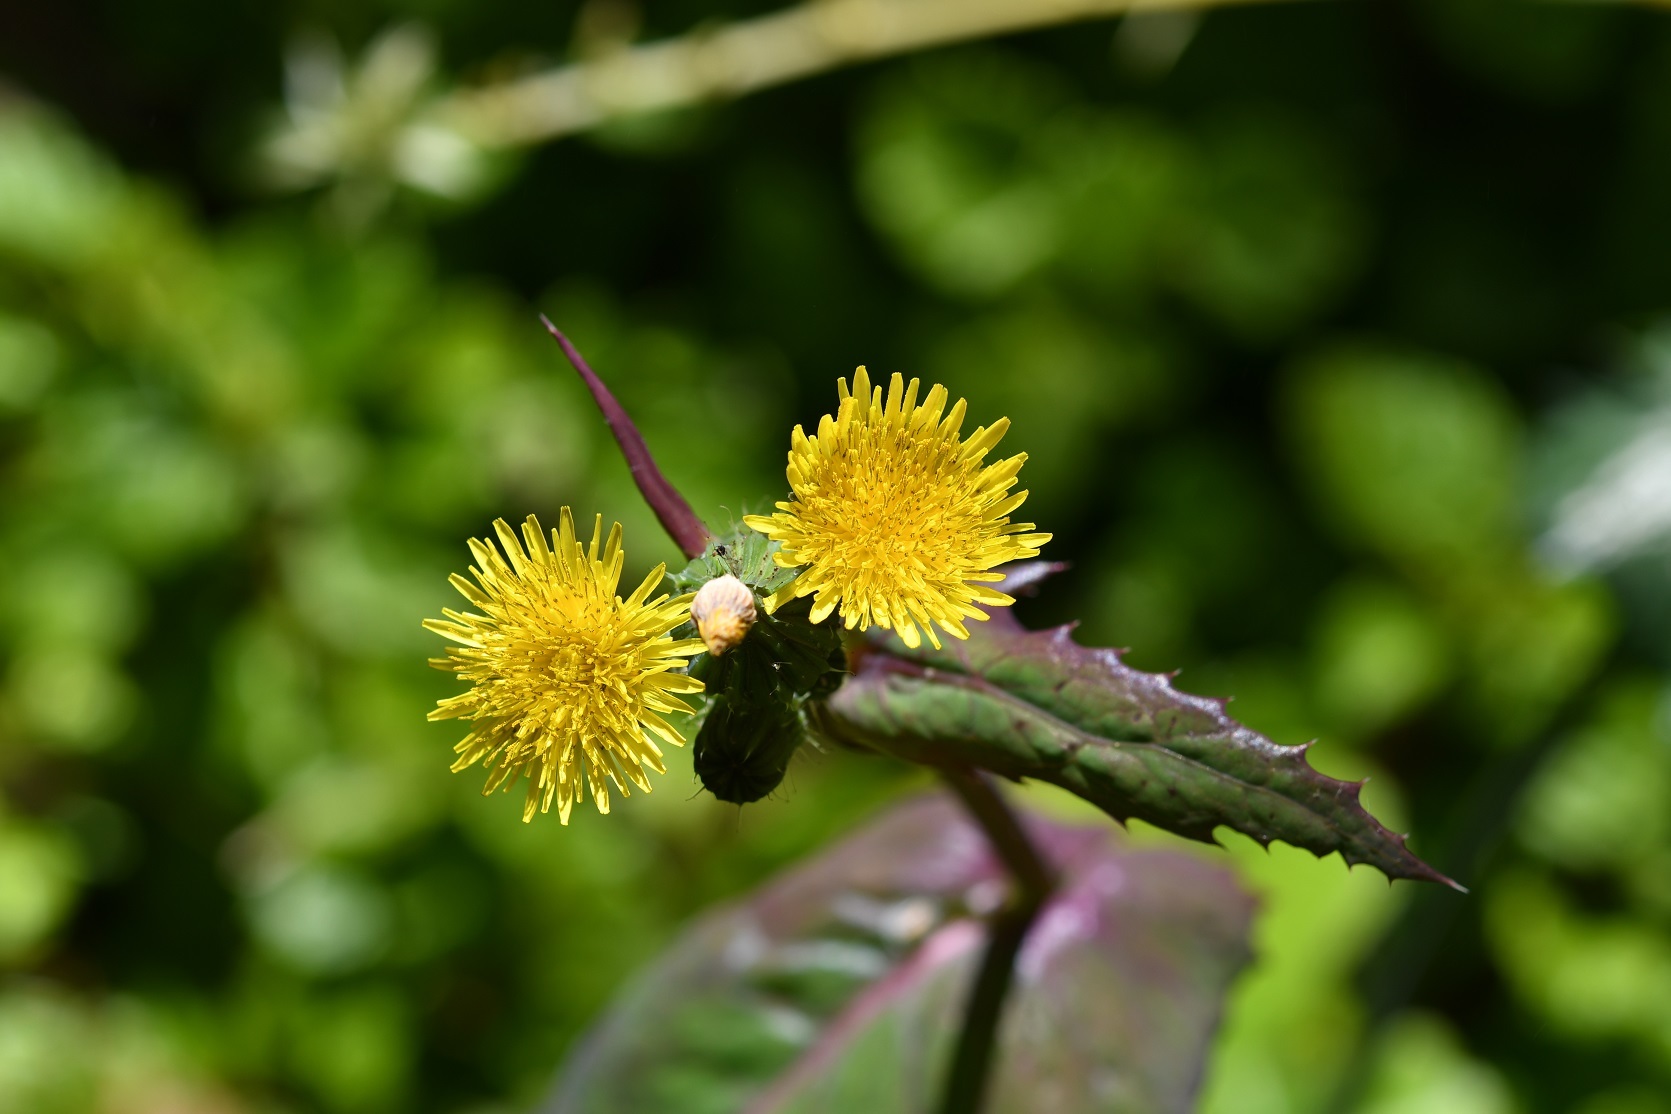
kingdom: Plantae
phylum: Tracheophyta
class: Magnoliopsida
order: Asterales
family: Asteraceae
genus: Sonchus
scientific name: Sonchus oleraceus
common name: Common sowthistle
